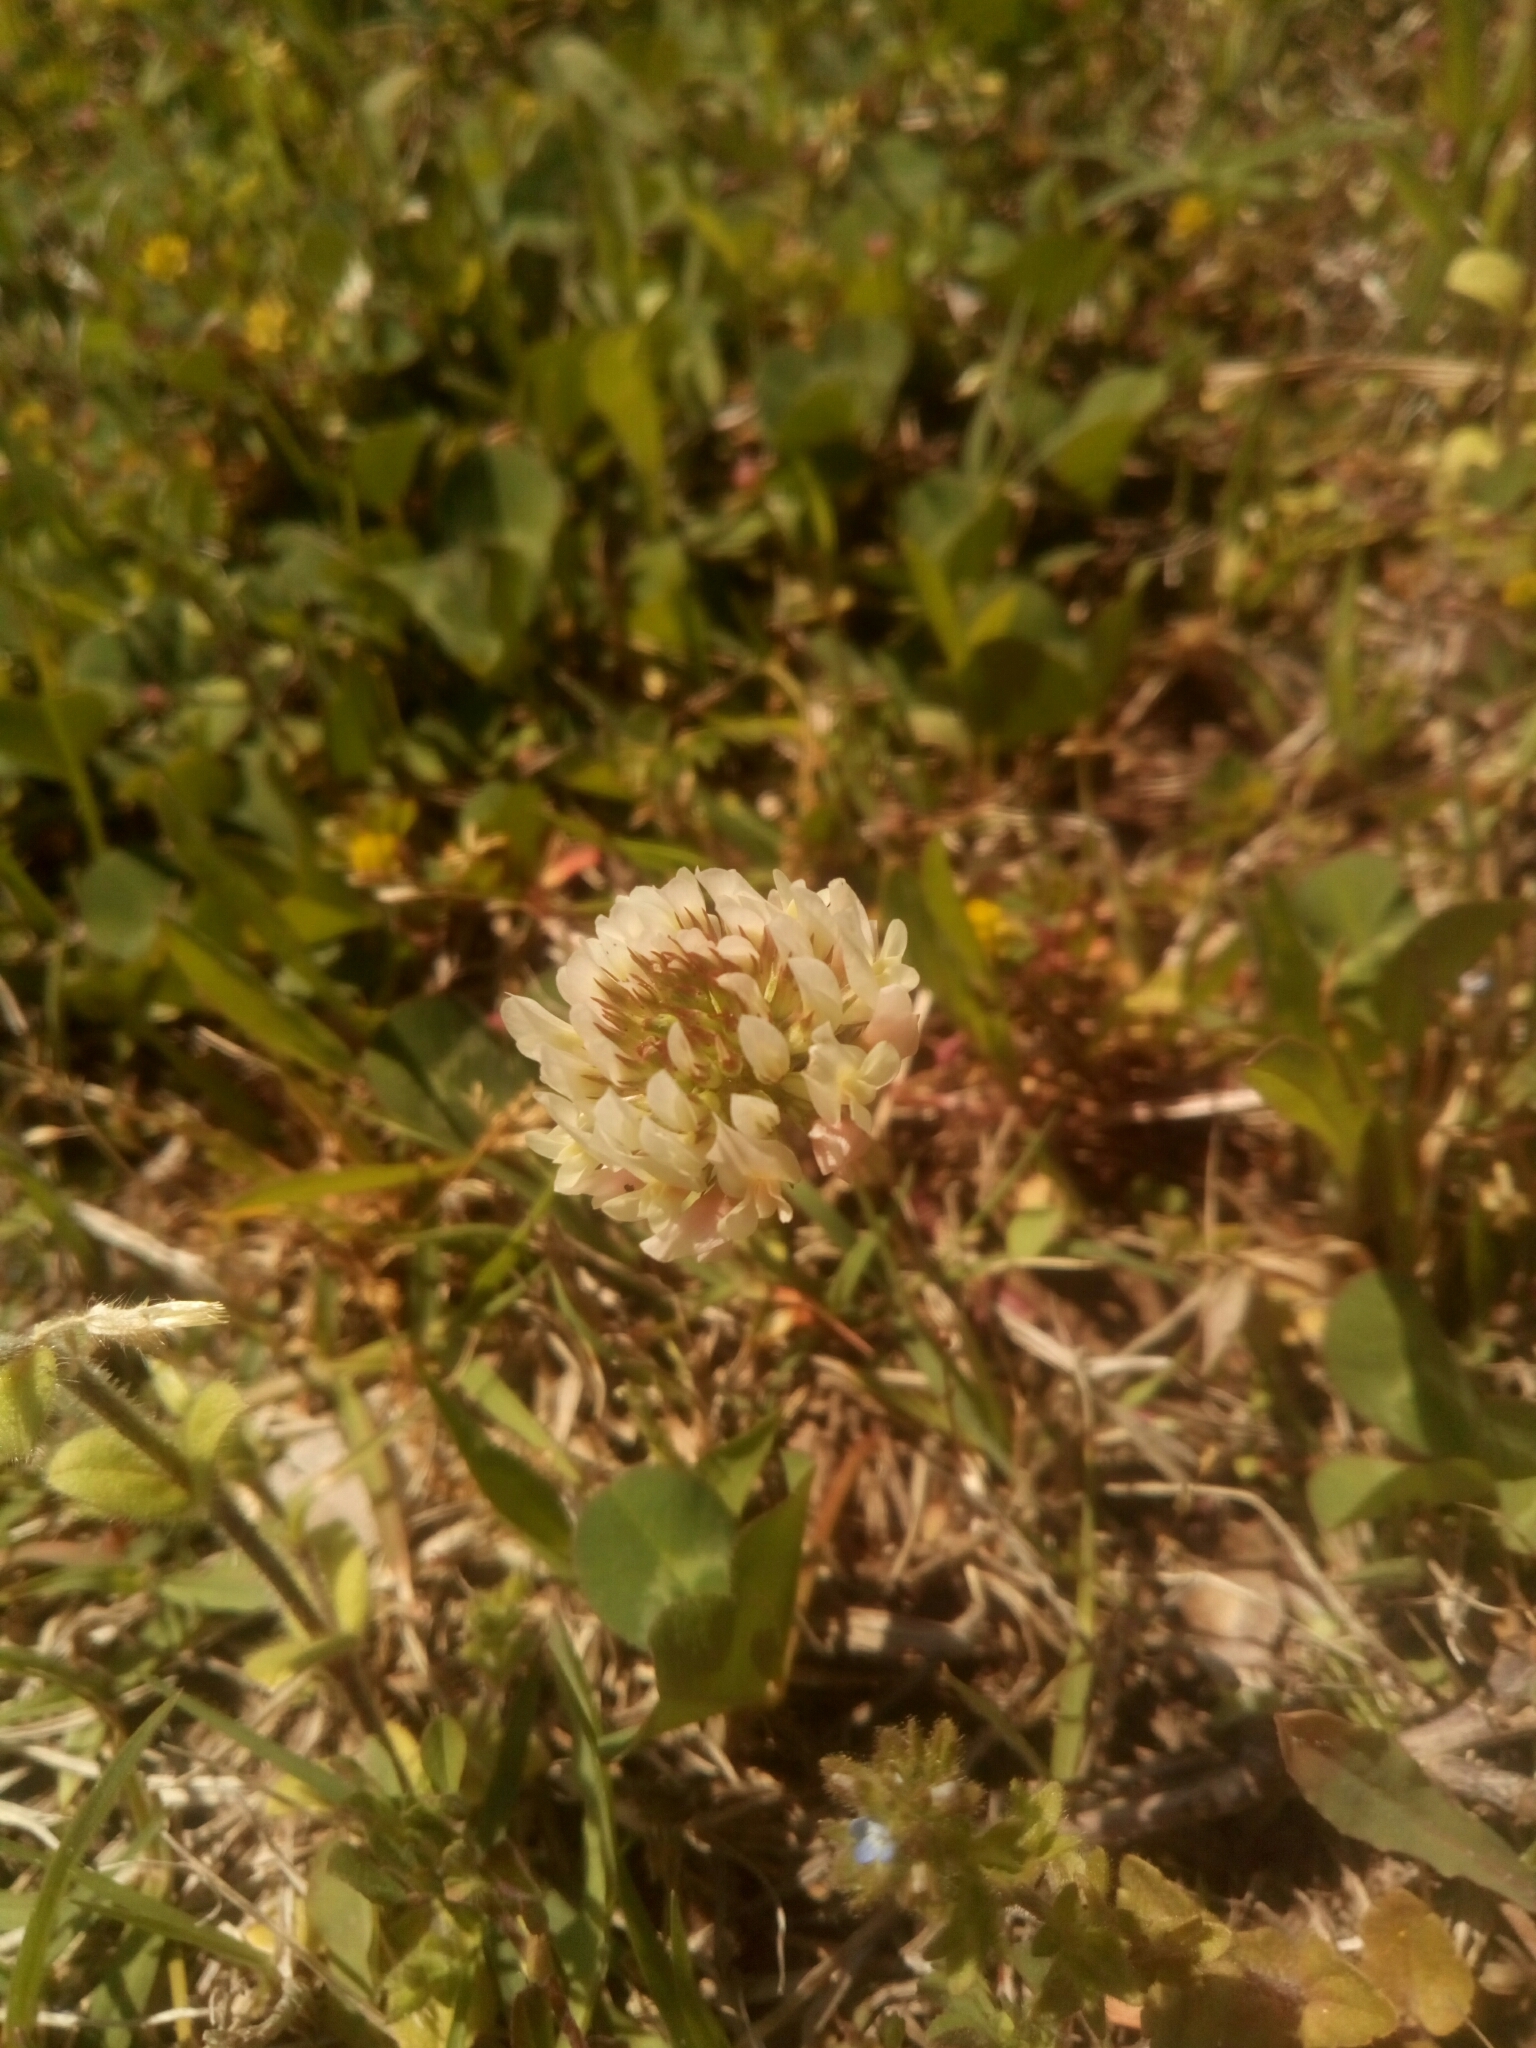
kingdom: Plantae
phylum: Tracheophyta
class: Magnoliopsida
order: Fabales
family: Fabaceae
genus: Trifolium
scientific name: Trifolium repens
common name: White clover
